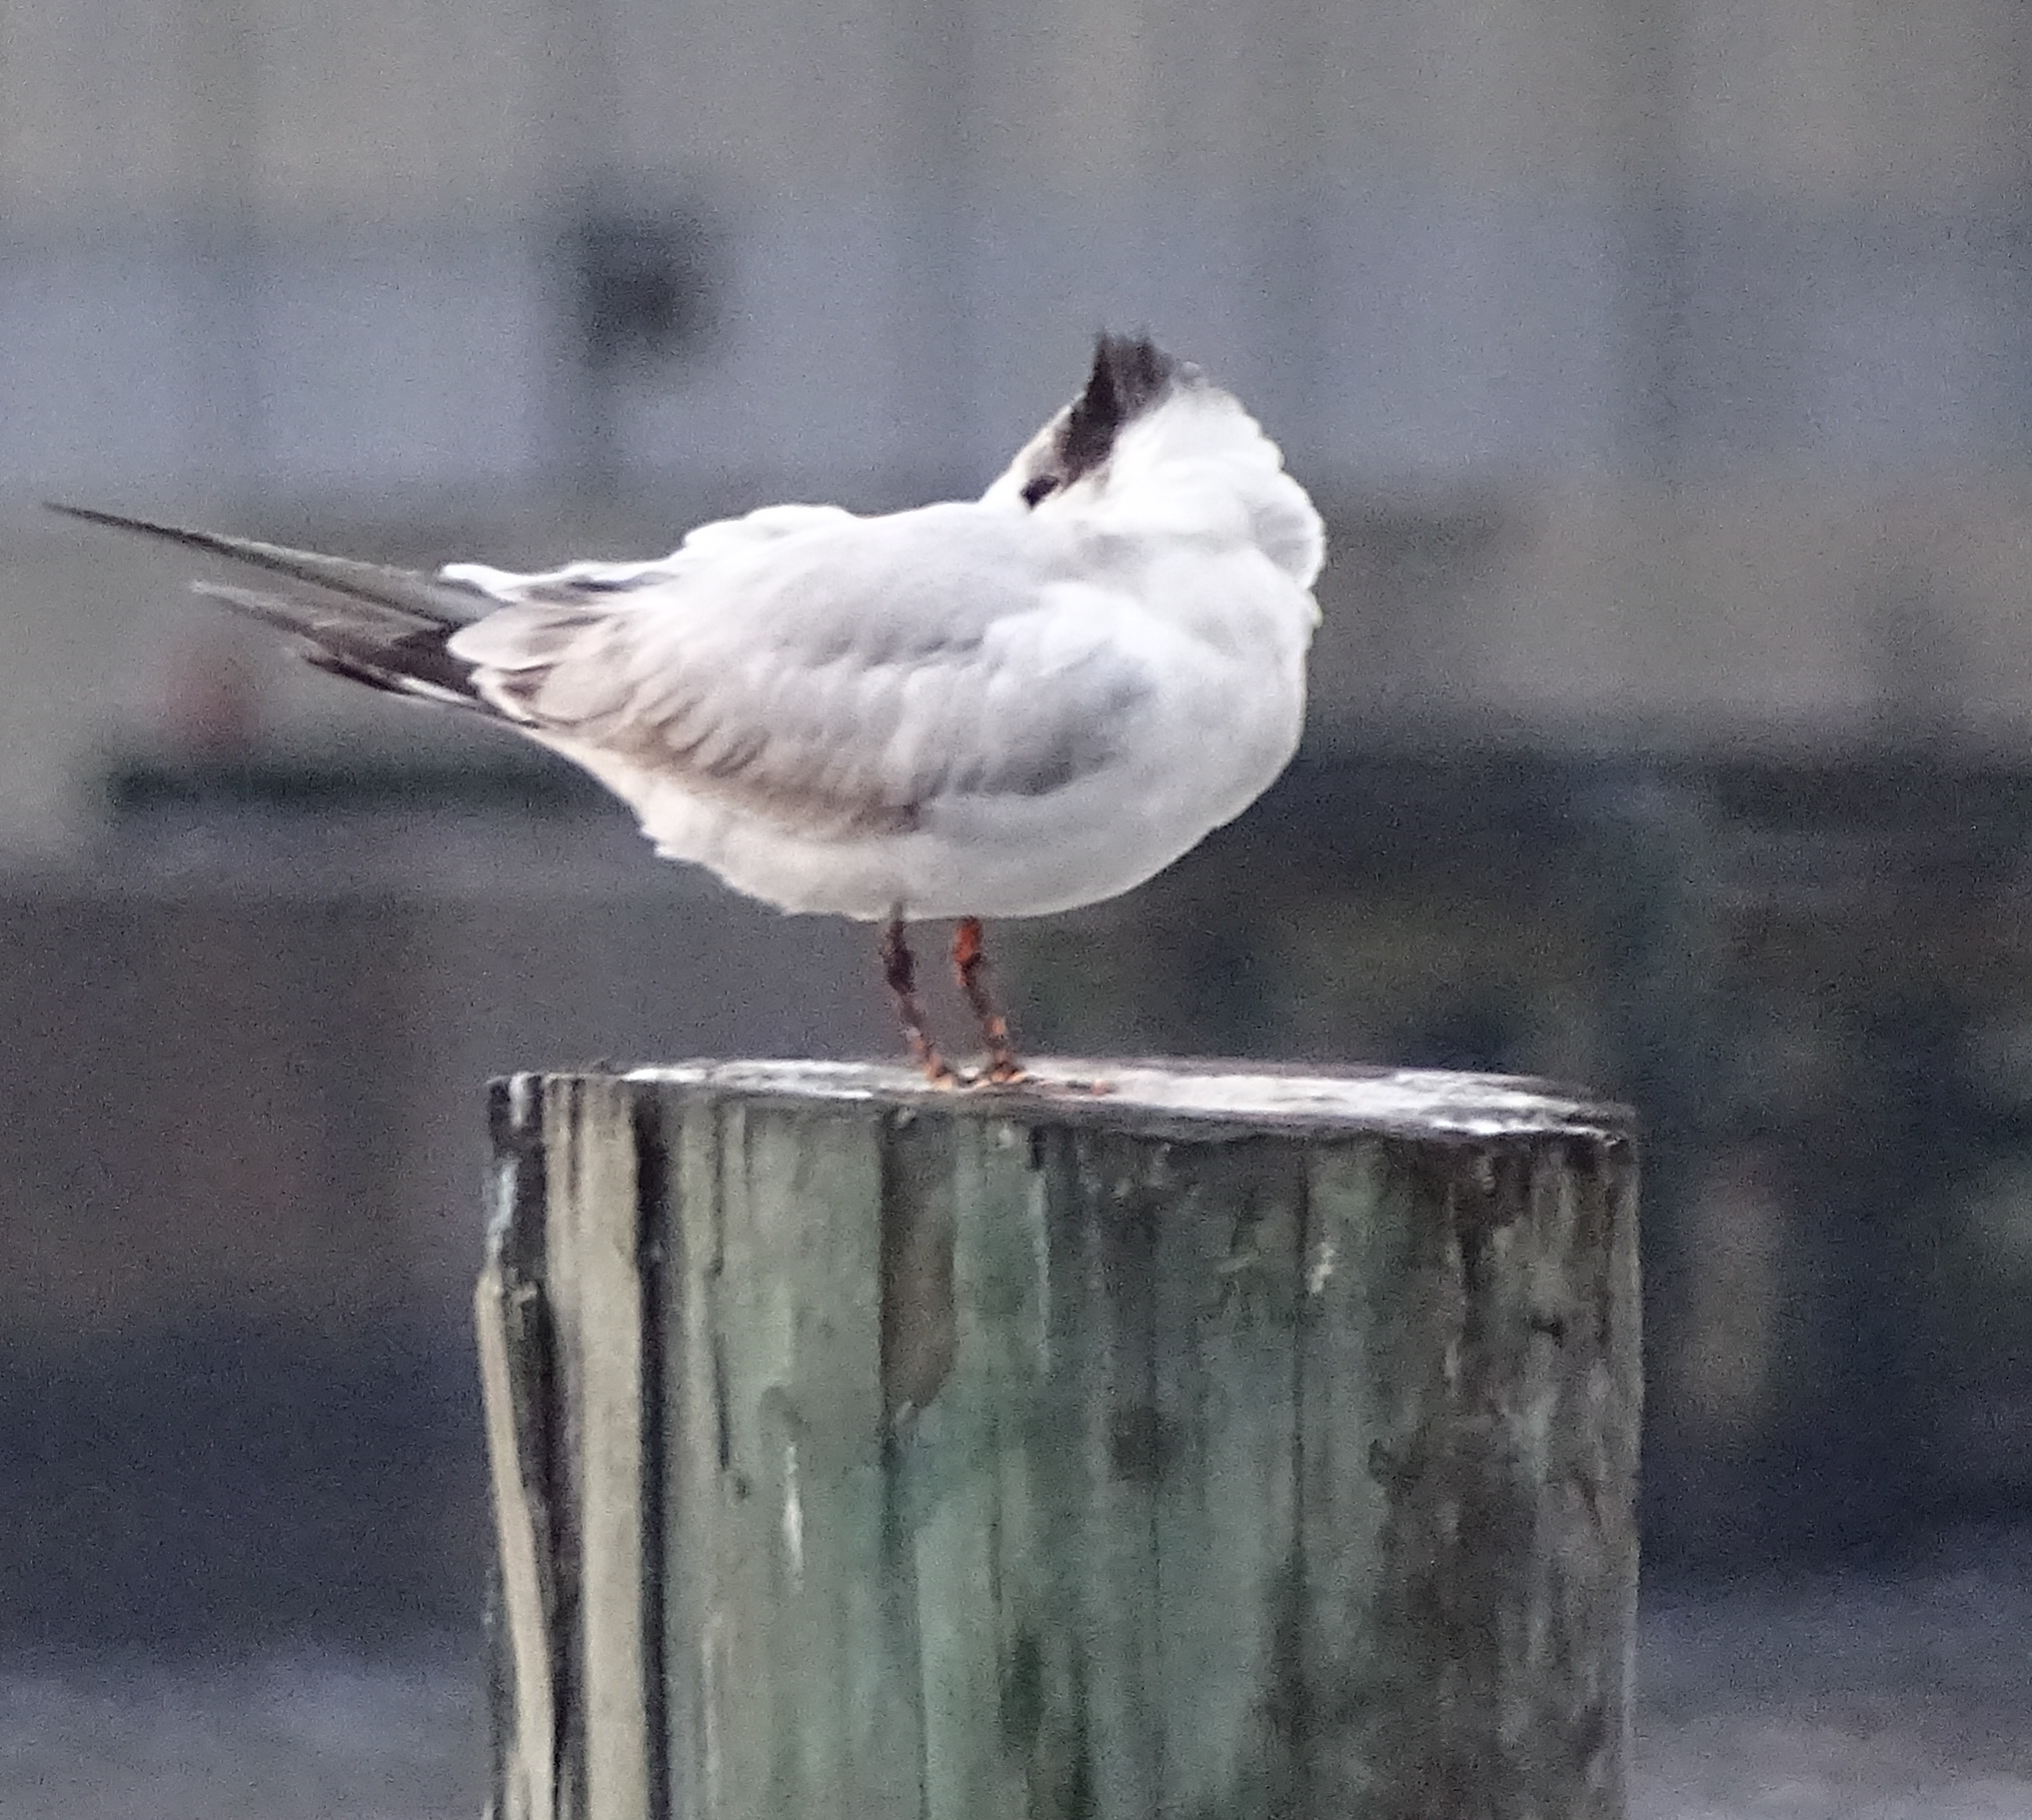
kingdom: Animalia
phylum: Chordata
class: Aves
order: Charadriiformes
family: Laridae
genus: Thalasseus
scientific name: Thalasseus maximus
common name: Royal tern
